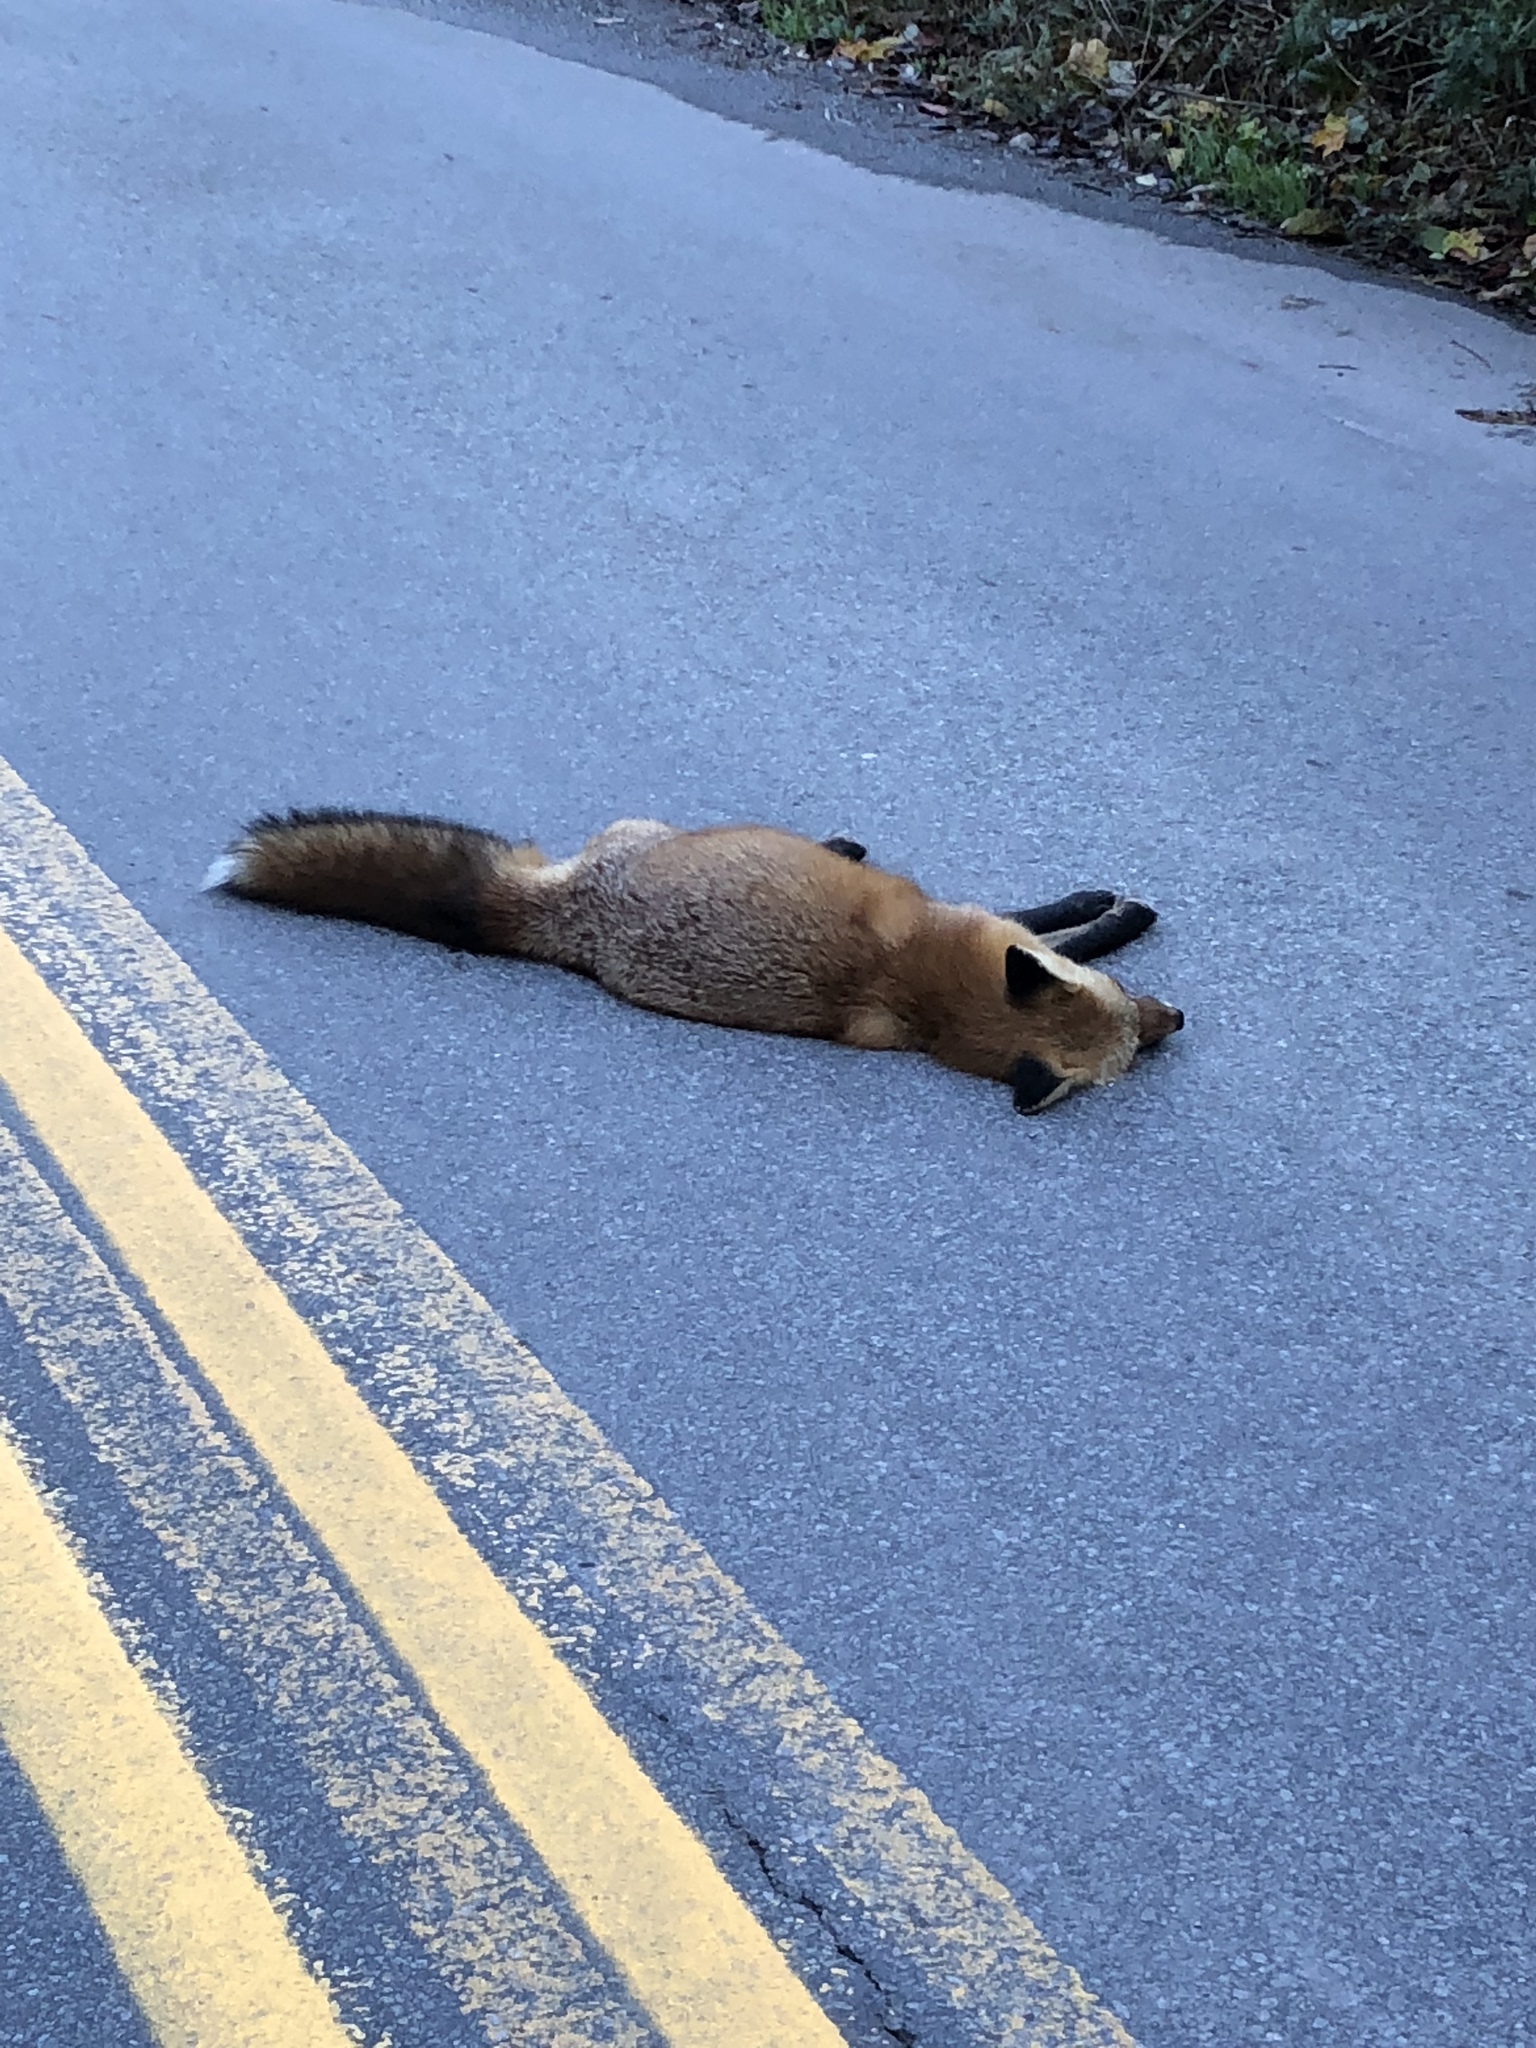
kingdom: Animalia
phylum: Chordata
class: Mammalia
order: Carnivora
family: Canidae
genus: Vulpes
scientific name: Vulpes vulpes
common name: Red fox
